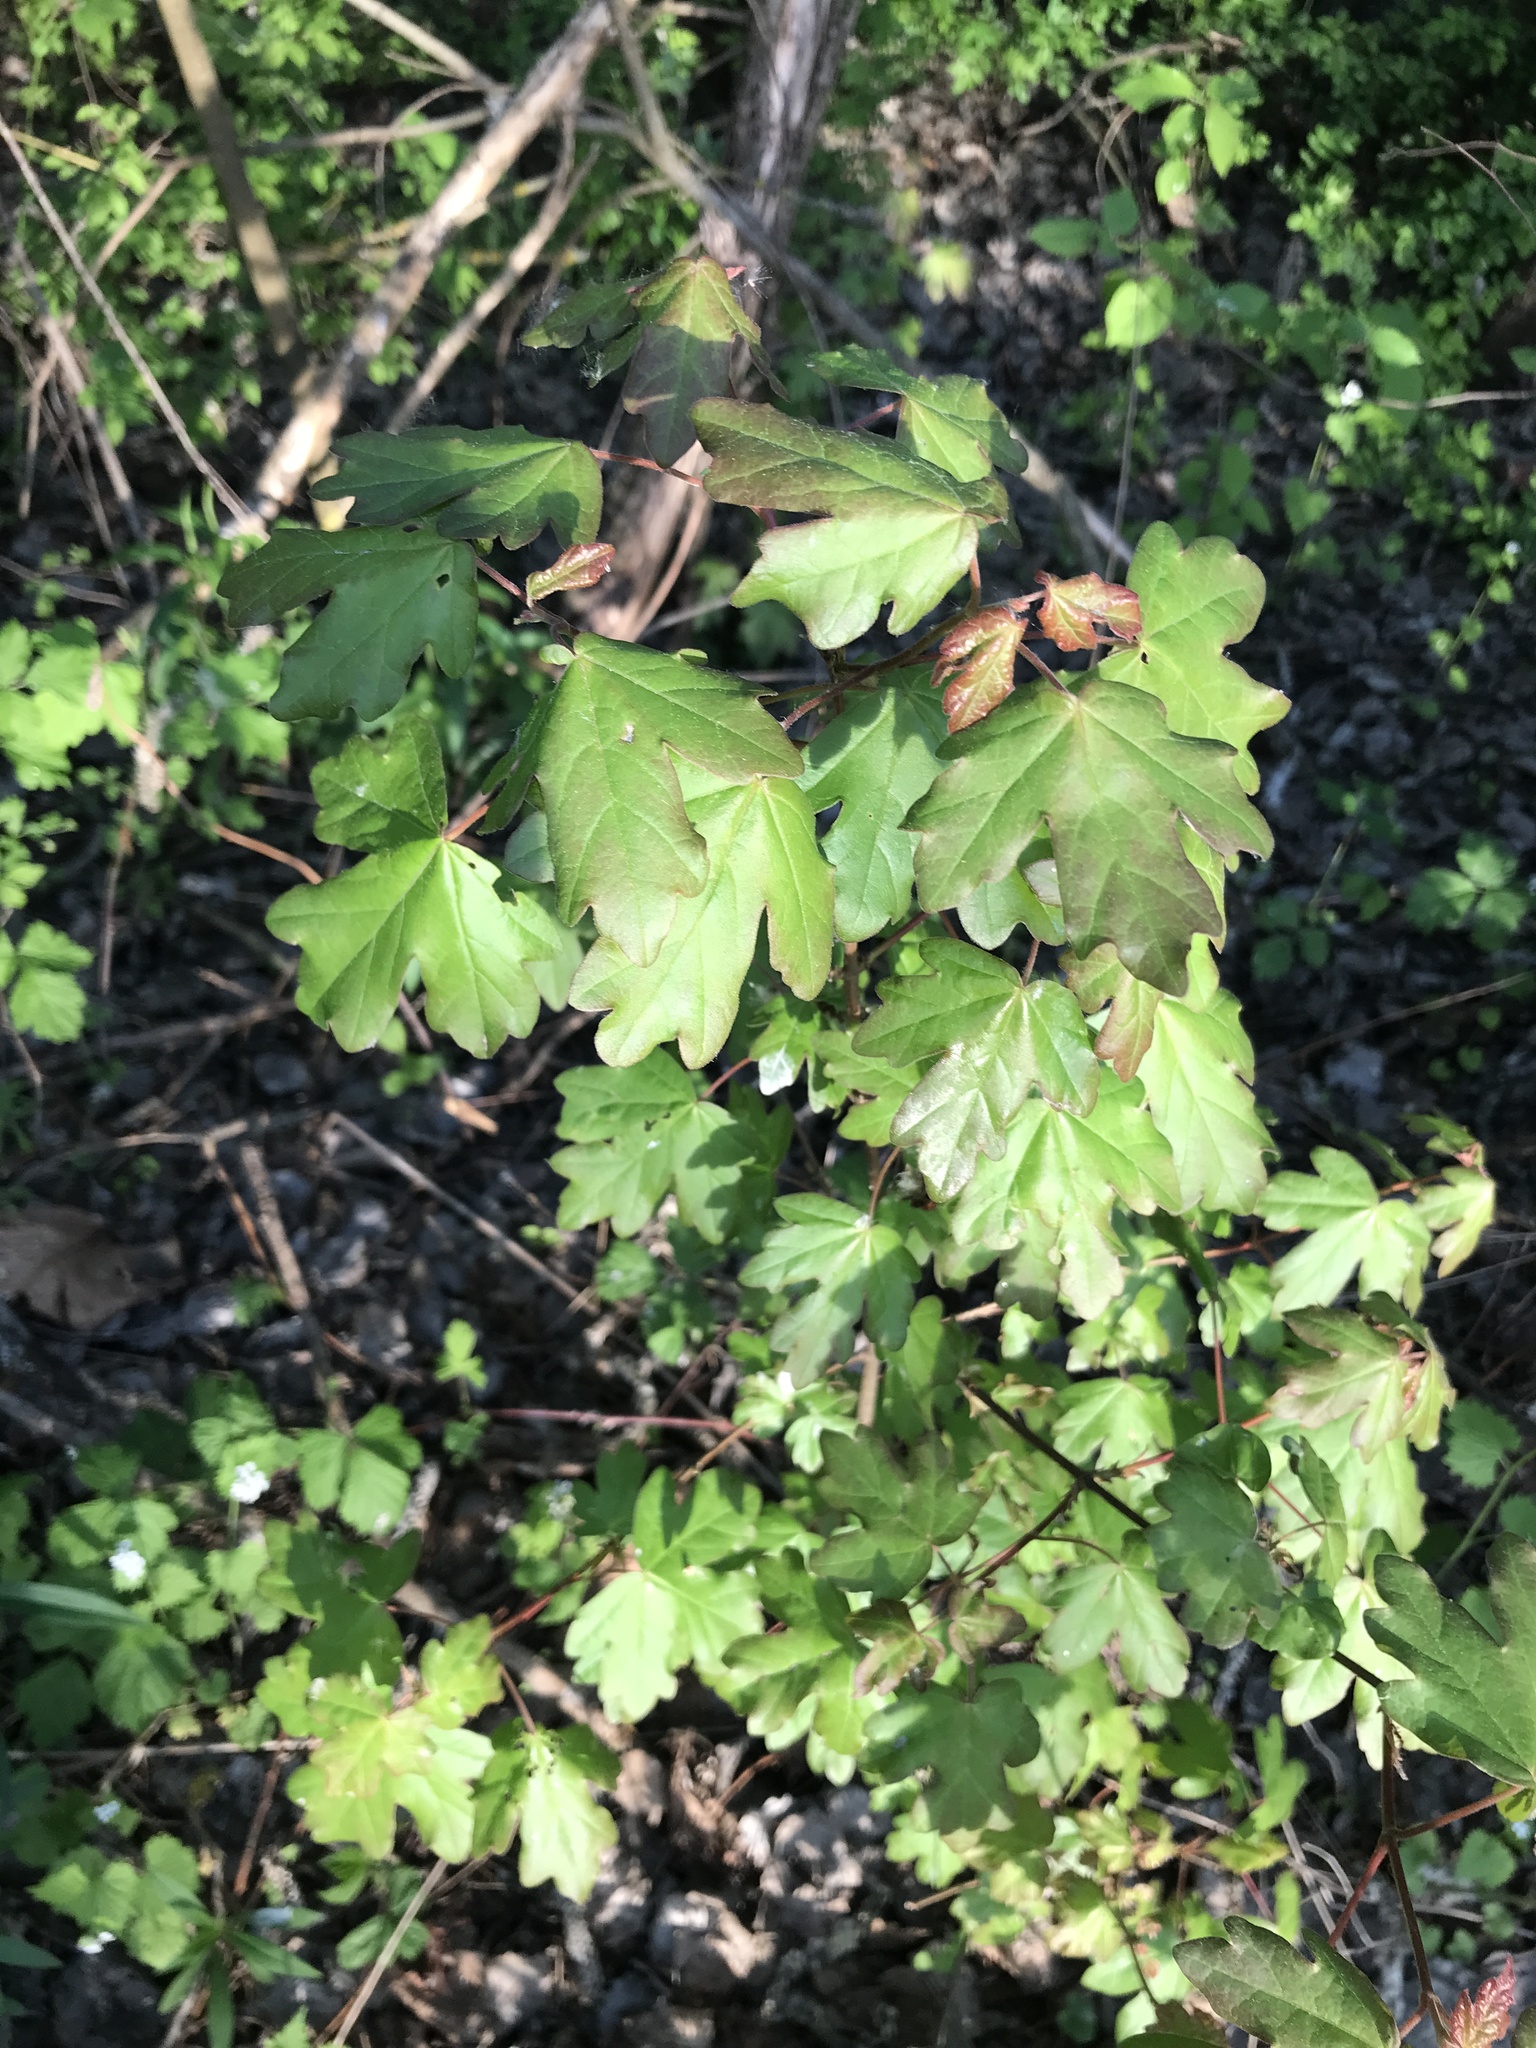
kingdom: Plantae
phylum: Tracheophyta
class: Magnoliopsida
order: Sapindales
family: Sapindaceae
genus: Acer
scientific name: Acer campestre
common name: Field maple
